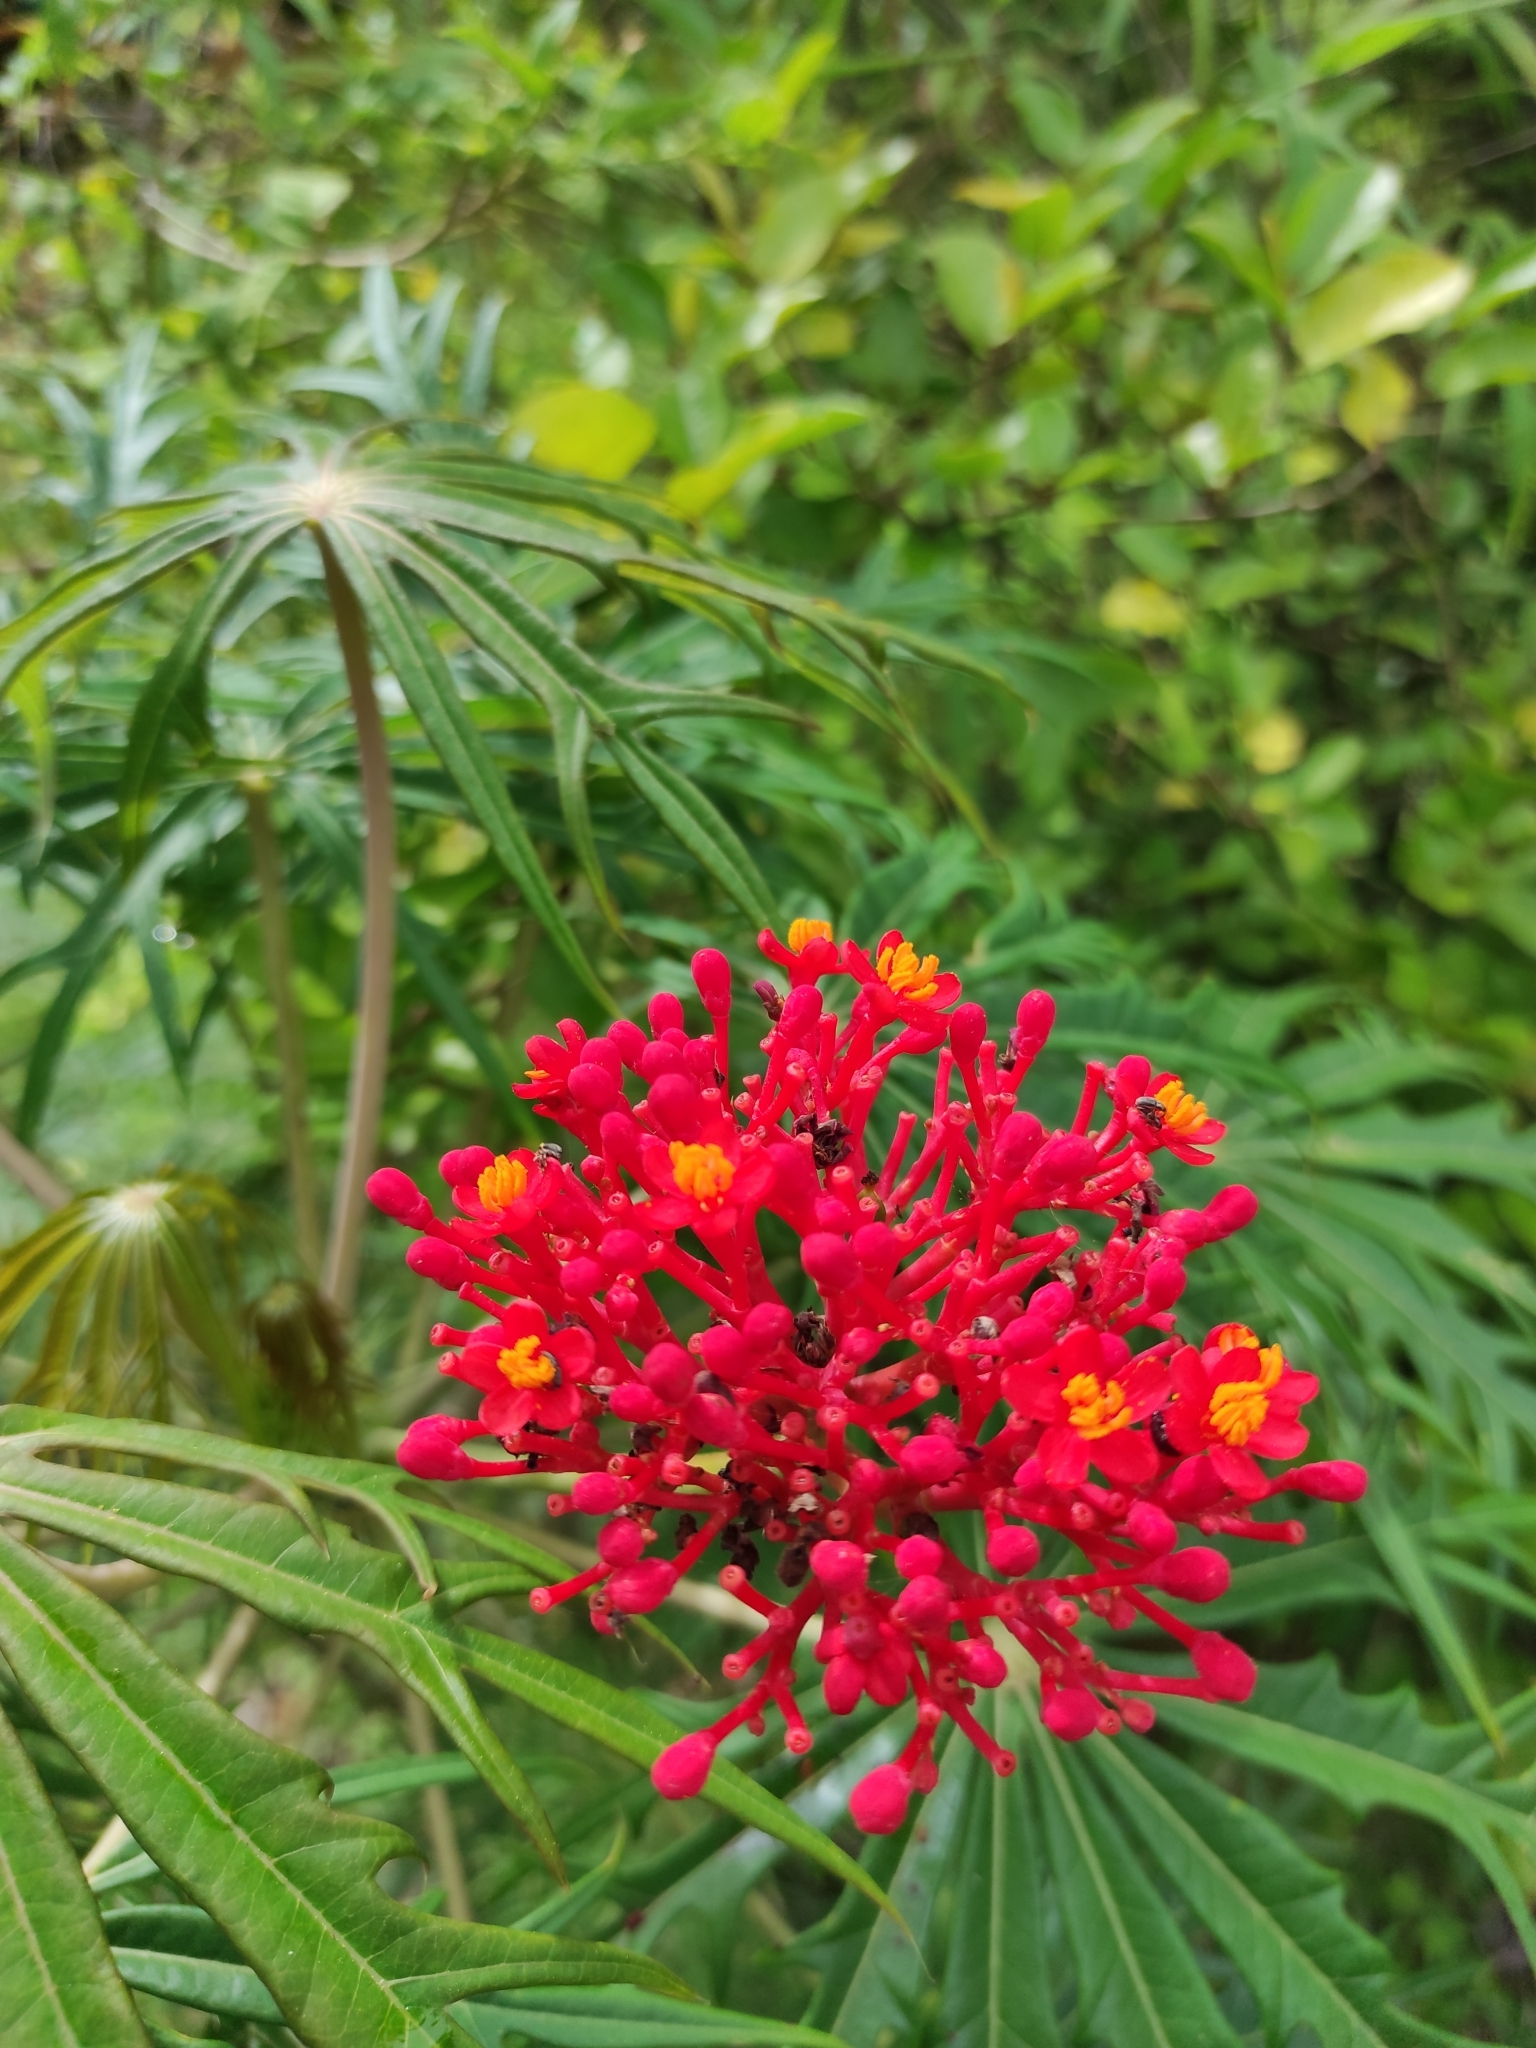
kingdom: Plantae
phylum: Tracheophyta
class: Magnoliopsida
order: Malpighiales
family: Euphorbiaceae
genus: Jatropha
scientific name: Jatropha podagrica
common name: Gout stalk
